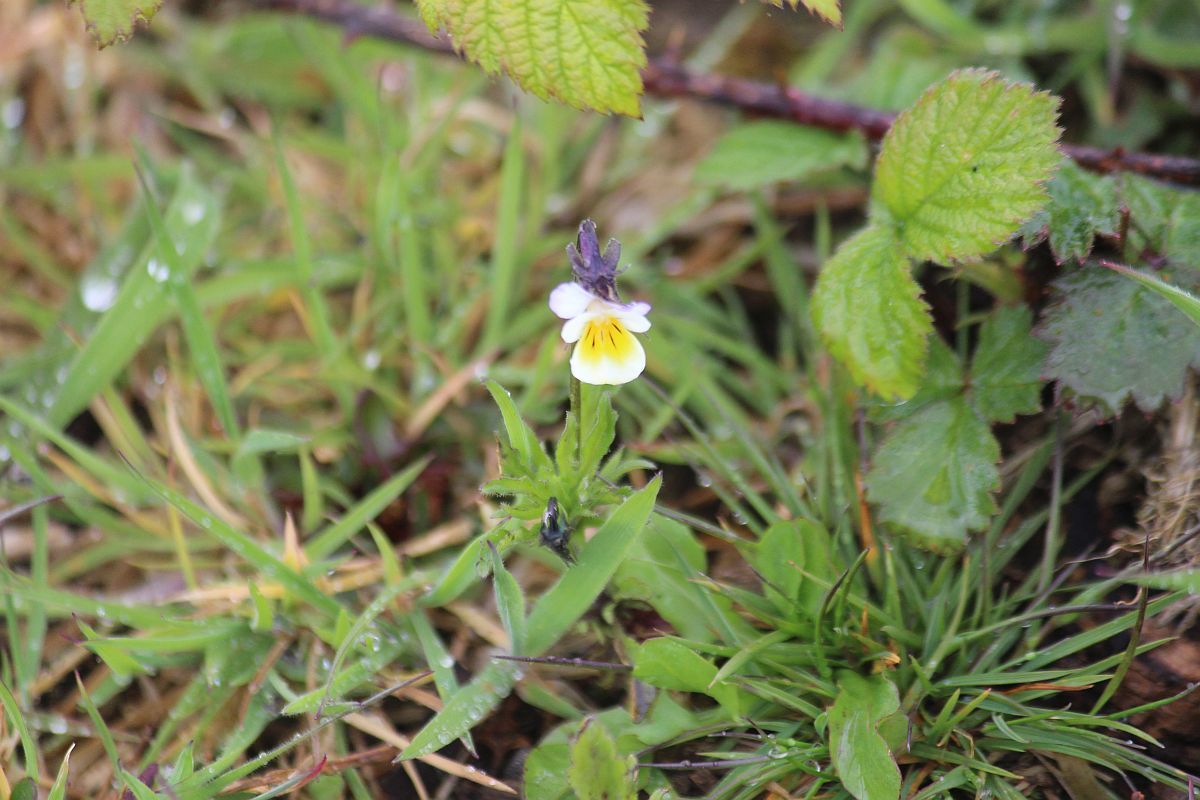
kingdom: Plantae
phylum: Tracheophyta
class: Magnoliopsida
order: Malpighiales
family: Violaceae
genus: Viola
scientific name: Viola arvensis
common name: Field pansy
